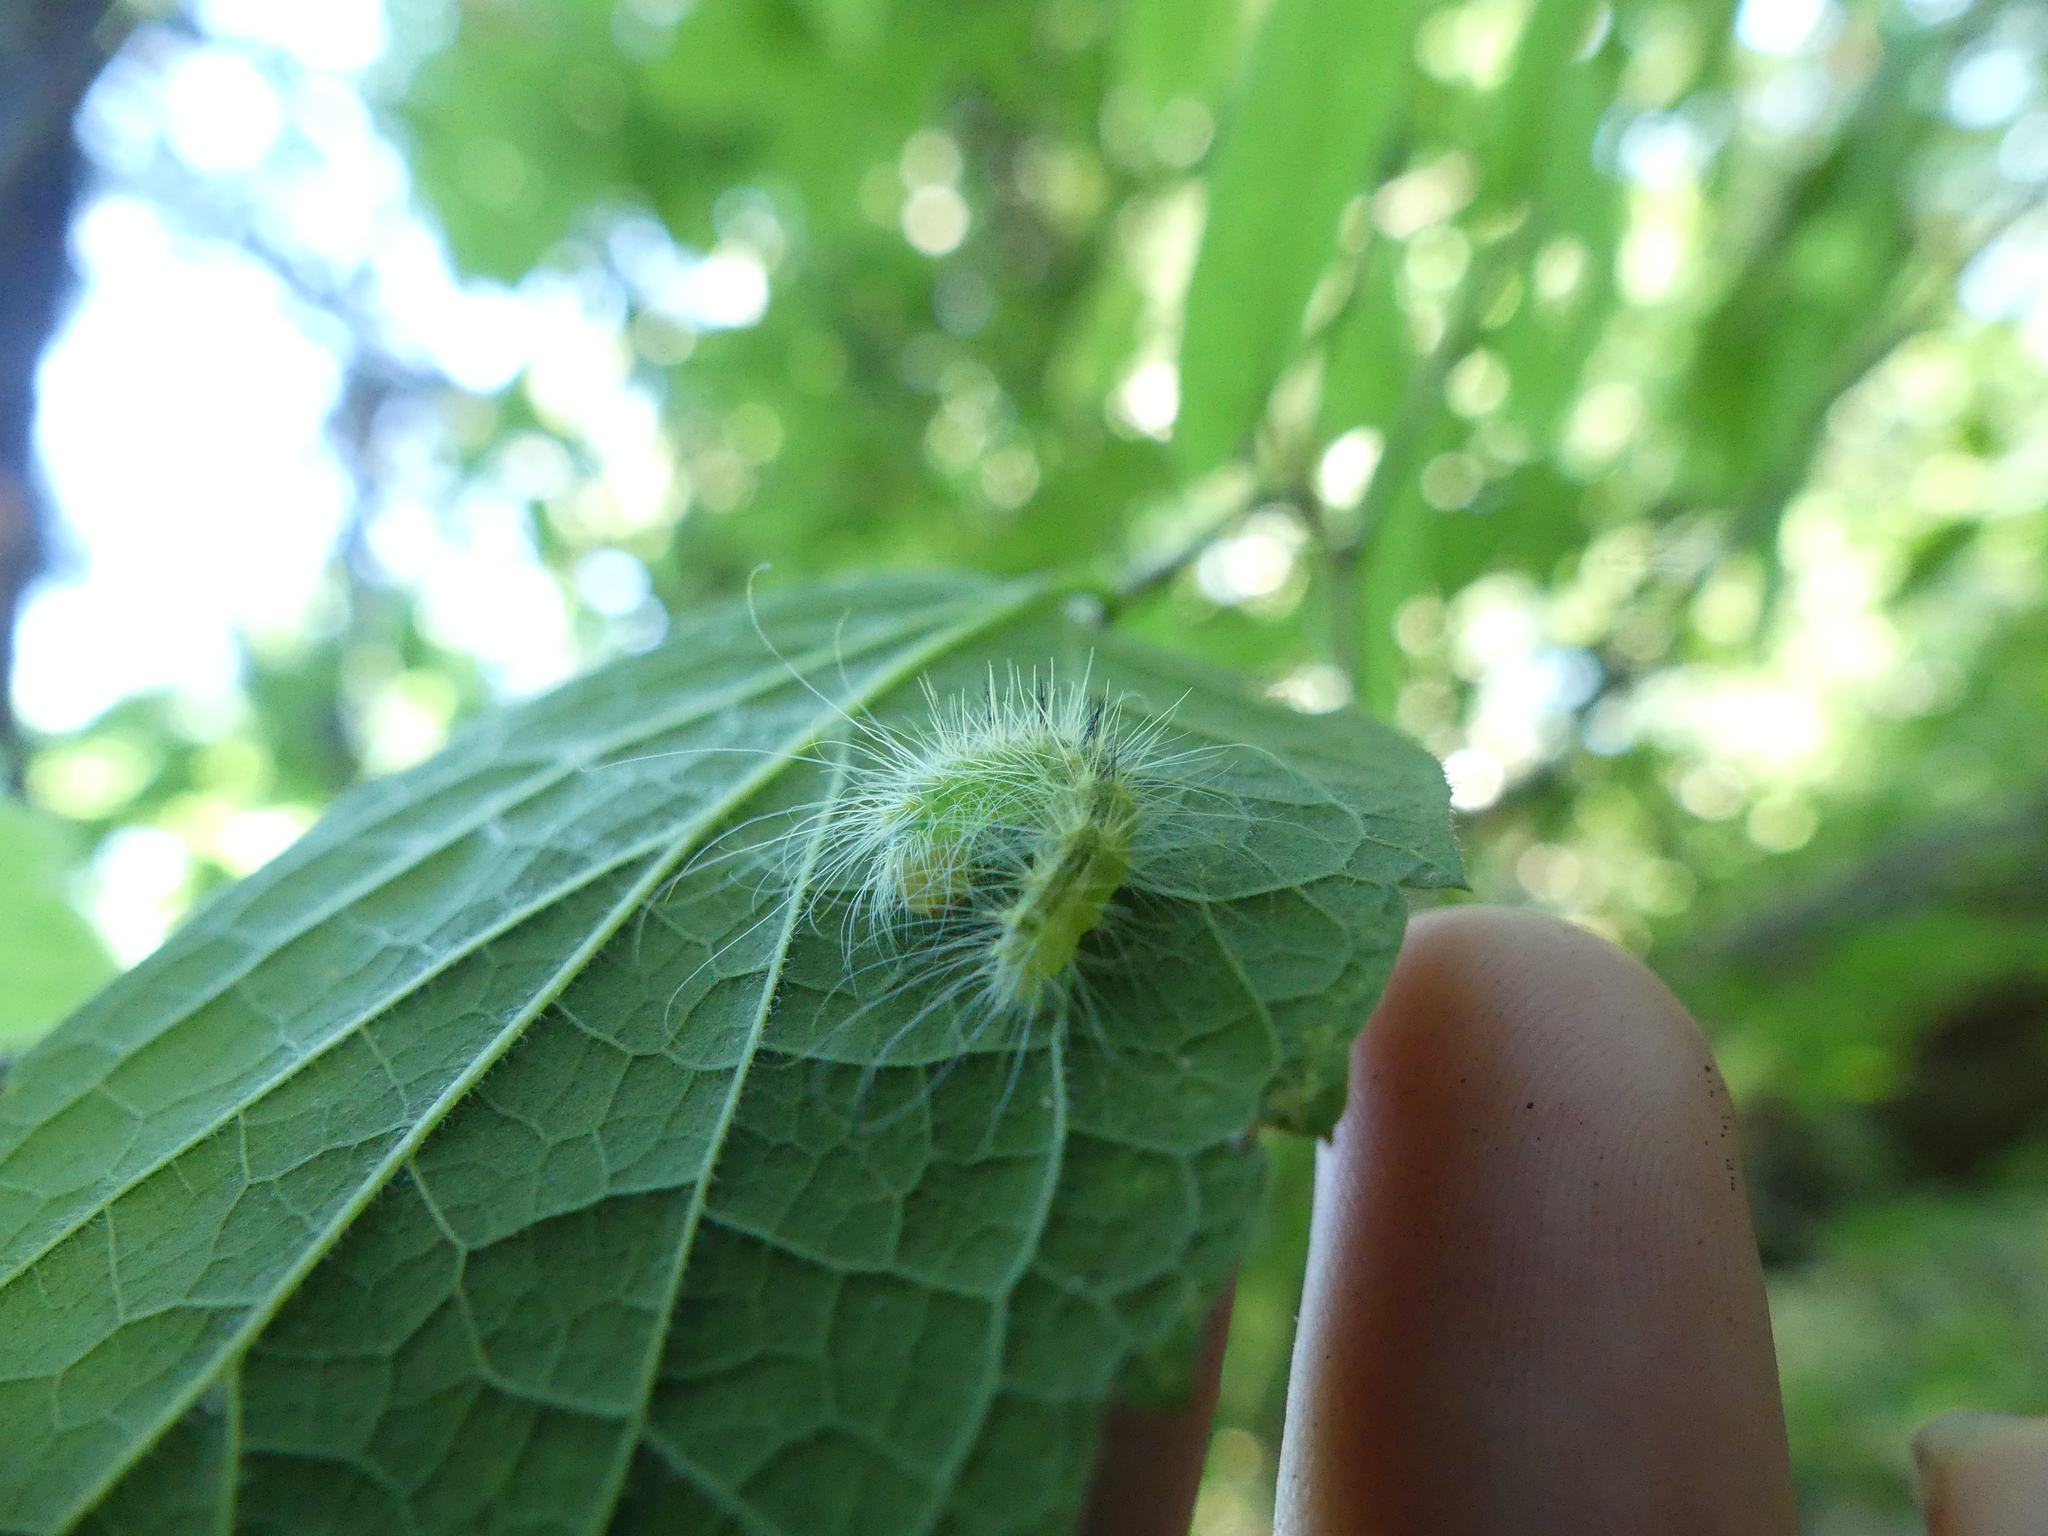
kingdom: Animalia
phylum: Arthropoda
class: Insecta
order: Lepidoptera
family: Noctuidae
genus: Acronicta
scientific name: Acronicta rubricoma
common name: Hackberry dagger
